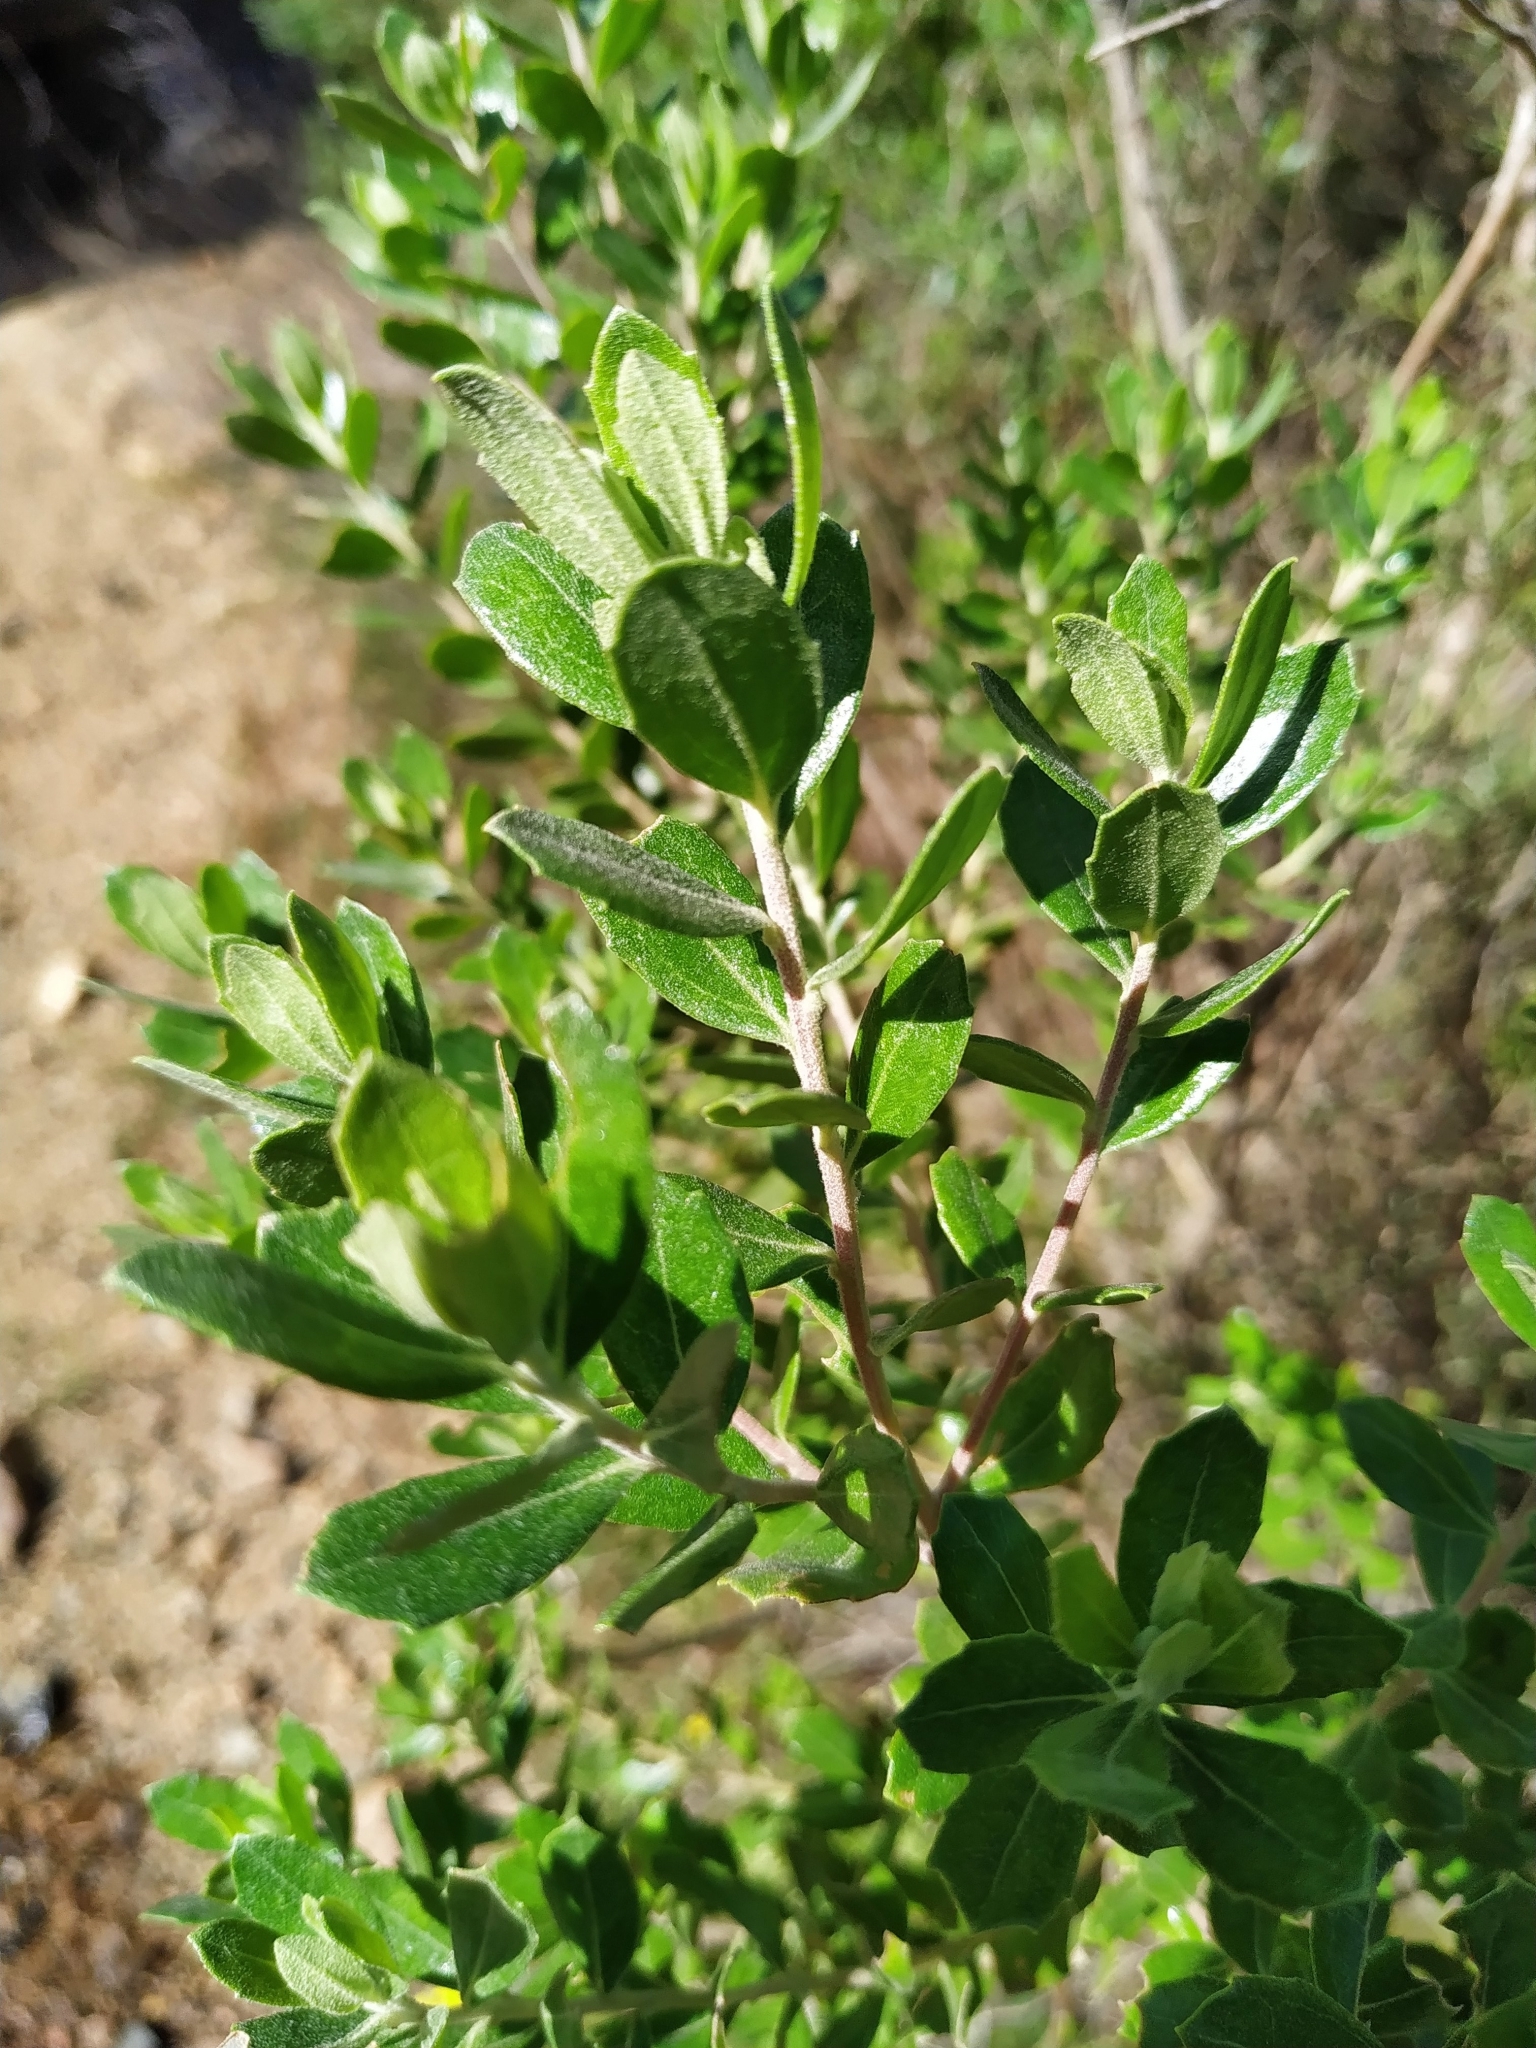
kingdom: Plantae
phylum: Tracheophyta
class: Magnoliopsida
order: Asterales
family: Asteraceae
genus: Baccharis
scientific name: Baccharis dracunculifolia
